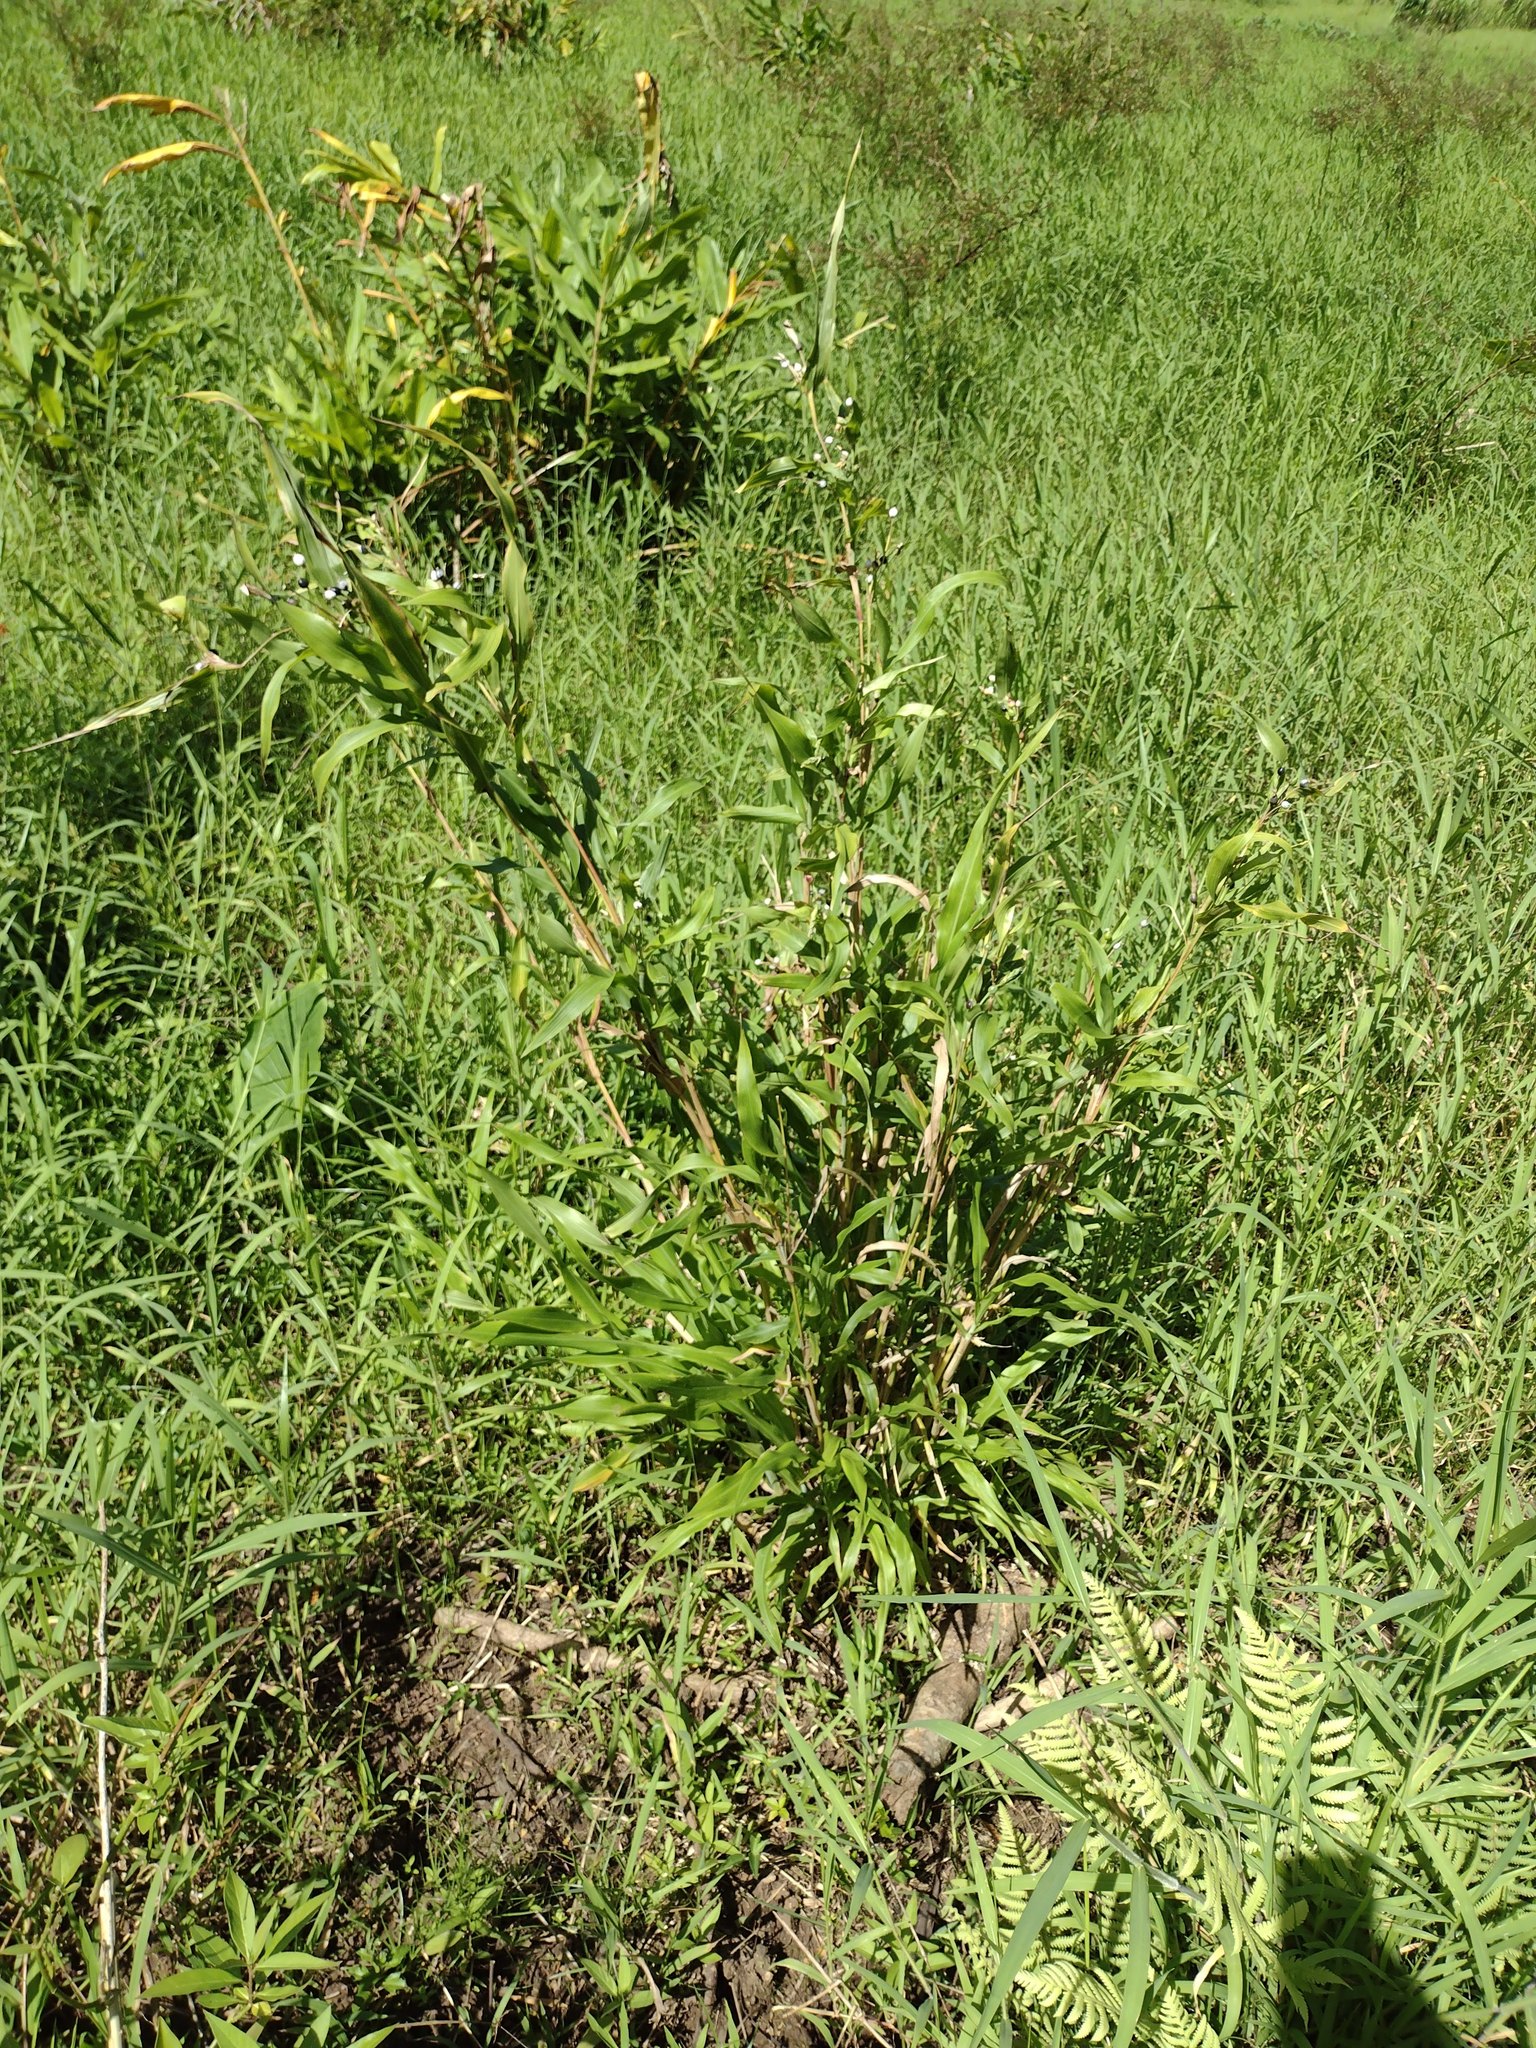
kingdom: Plantae
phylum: Tracheophyta
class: Liliopsida
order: Poales
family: Poaceae
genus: Coix
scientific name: Coix lacryma-jobi
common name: Job's tears
